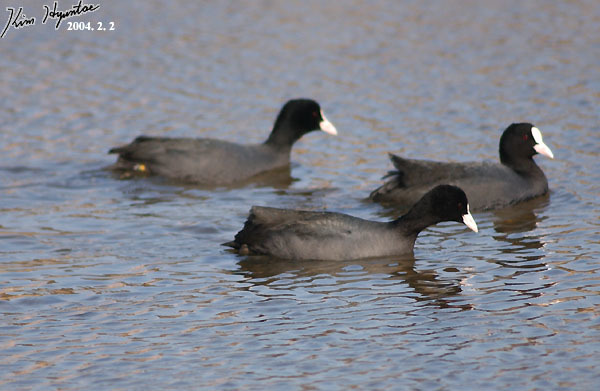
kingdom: Animalia
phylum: Chordata
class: Aves
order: Gruiformes
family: Rallidae
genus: Fulica
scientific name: Fulica atra
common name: Eurasian coot
